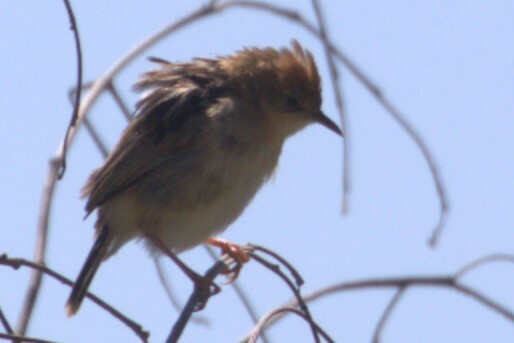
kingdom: Animalia
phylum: Chordata
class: Aves
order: Passeriformes
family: Cisticolidae
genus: Cisticola
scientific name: Cisticola exilis
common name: Golden-headed cisticola
